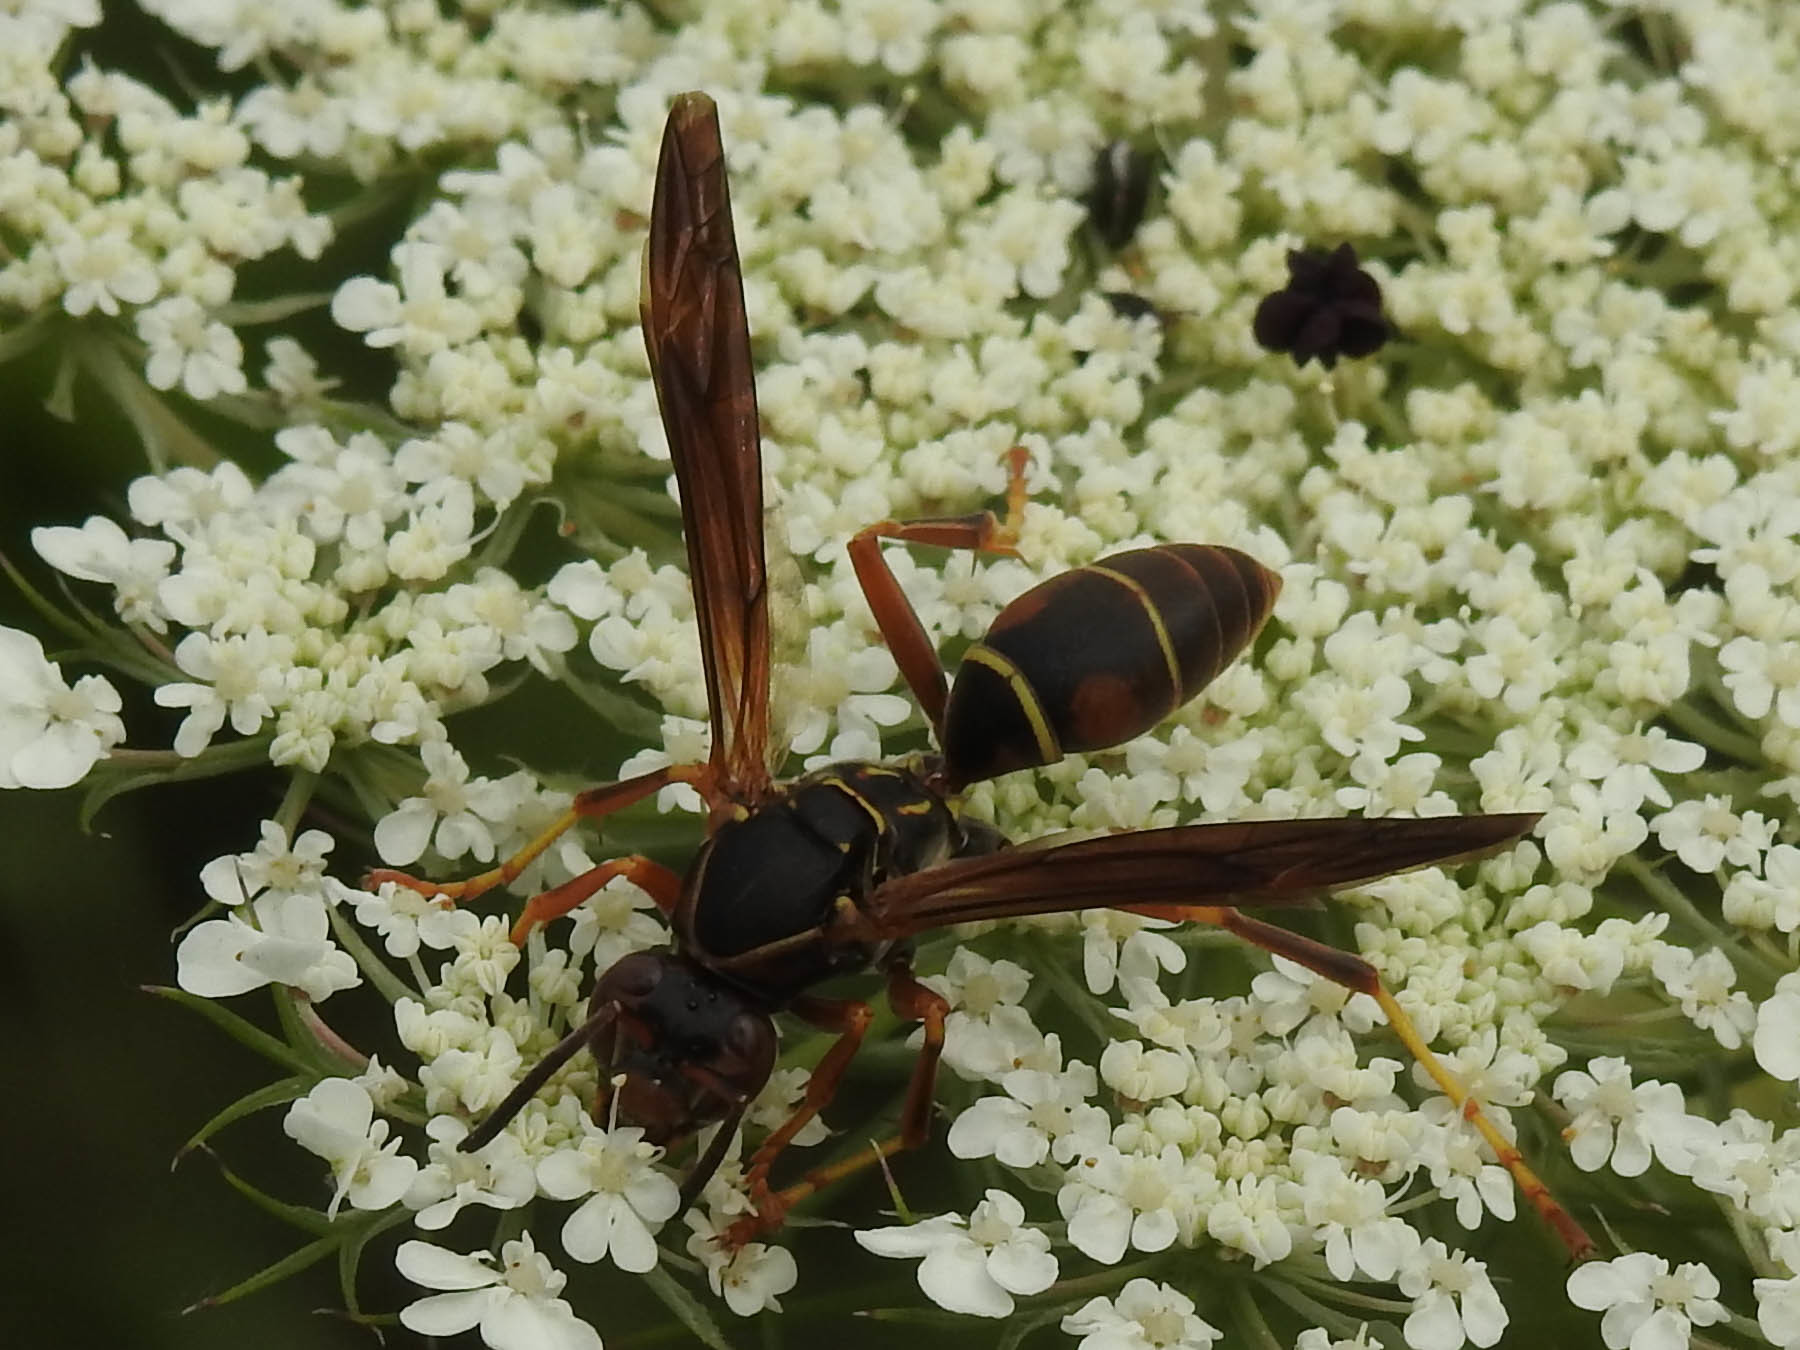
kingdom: Animalia
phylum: Arthropoda
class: Insecta
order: Hymenoptera
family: Eumenidae
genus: Polistes
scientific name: Polistes fuscatus
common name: Dark paper wasp
